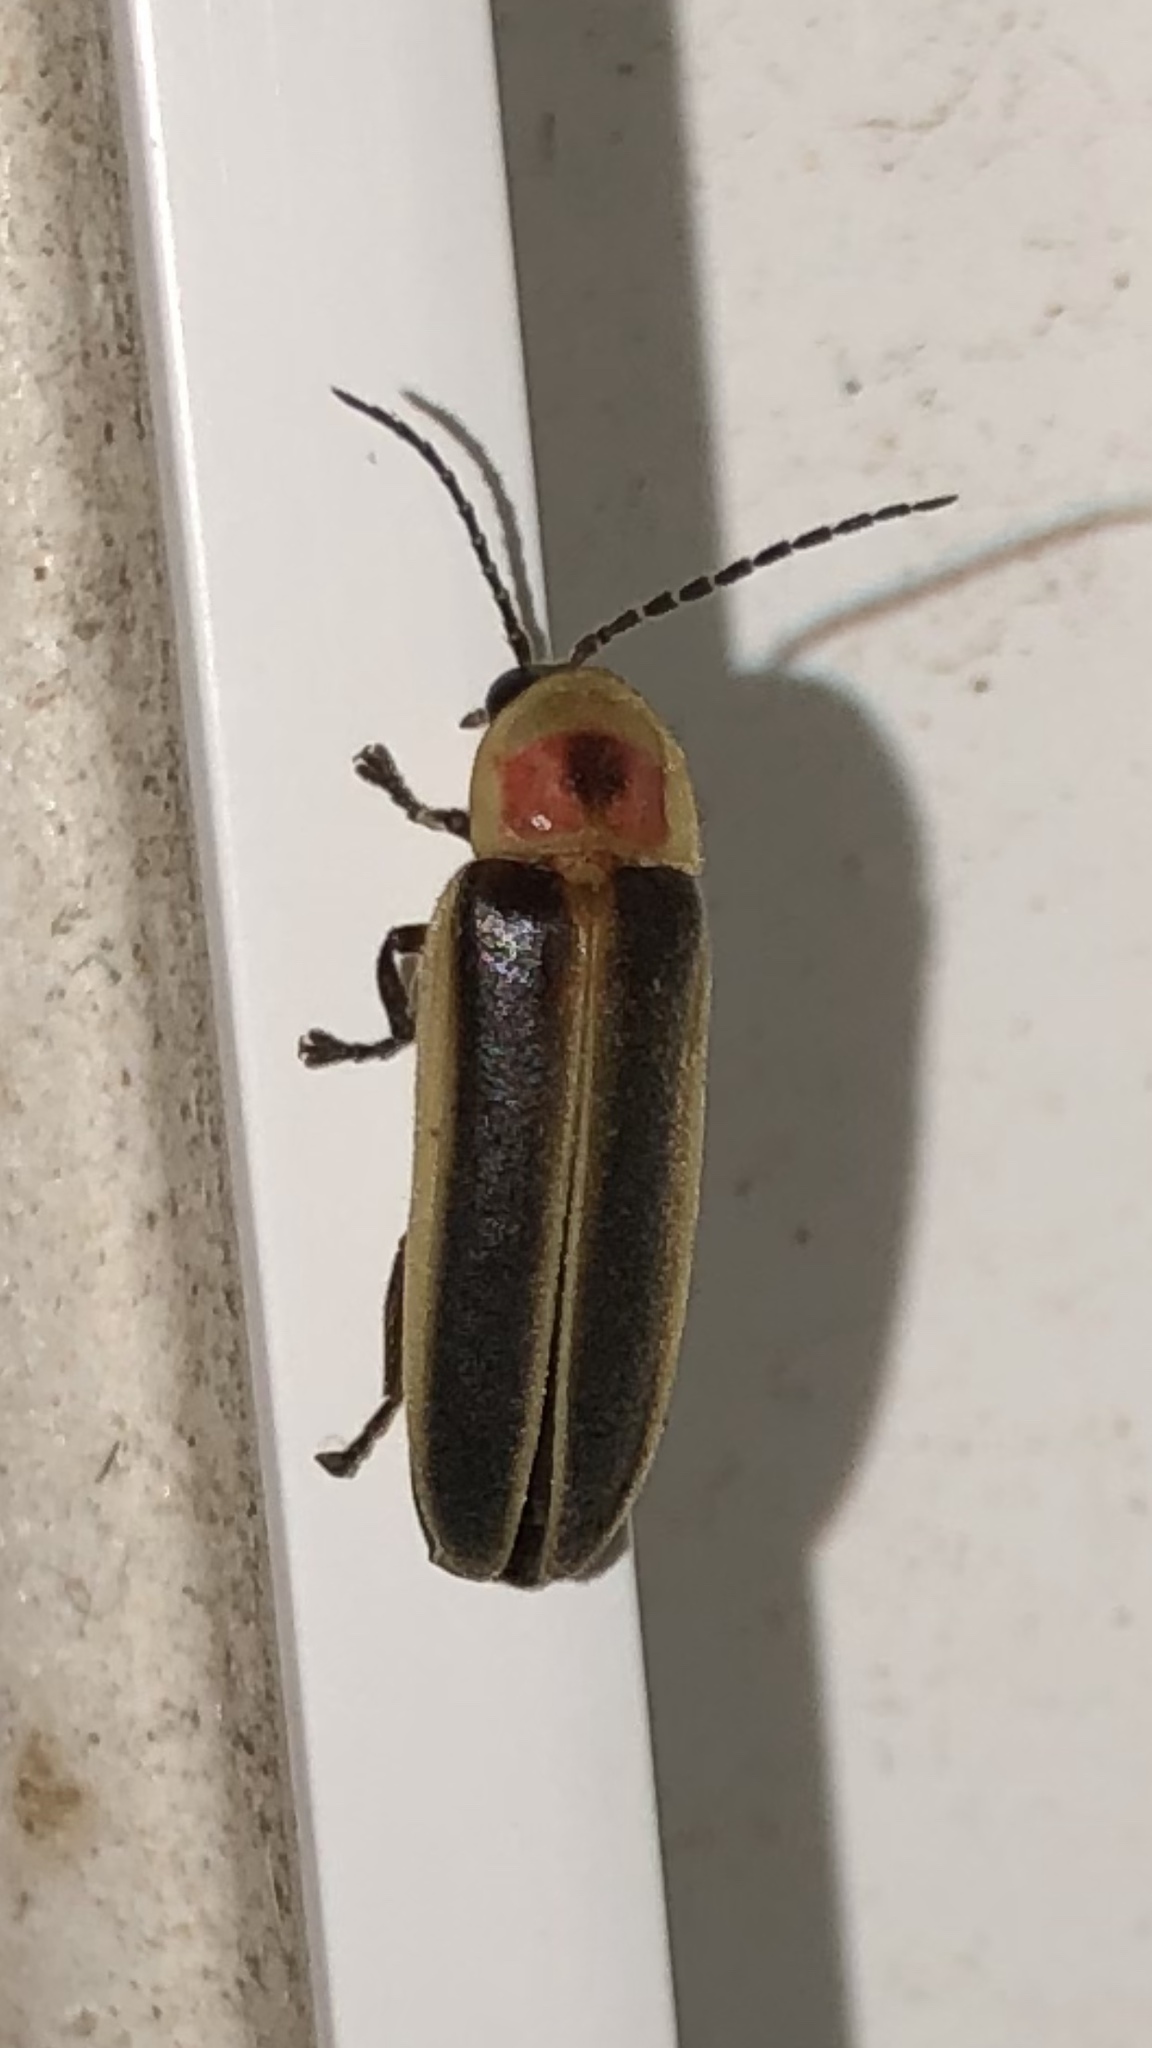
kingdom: Animalia
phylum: Arthropoda
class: Insecta
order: Coleoptera
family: Lampyridae
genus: Photinus
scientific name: Photinus pyralis
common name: Big dipper firefly
